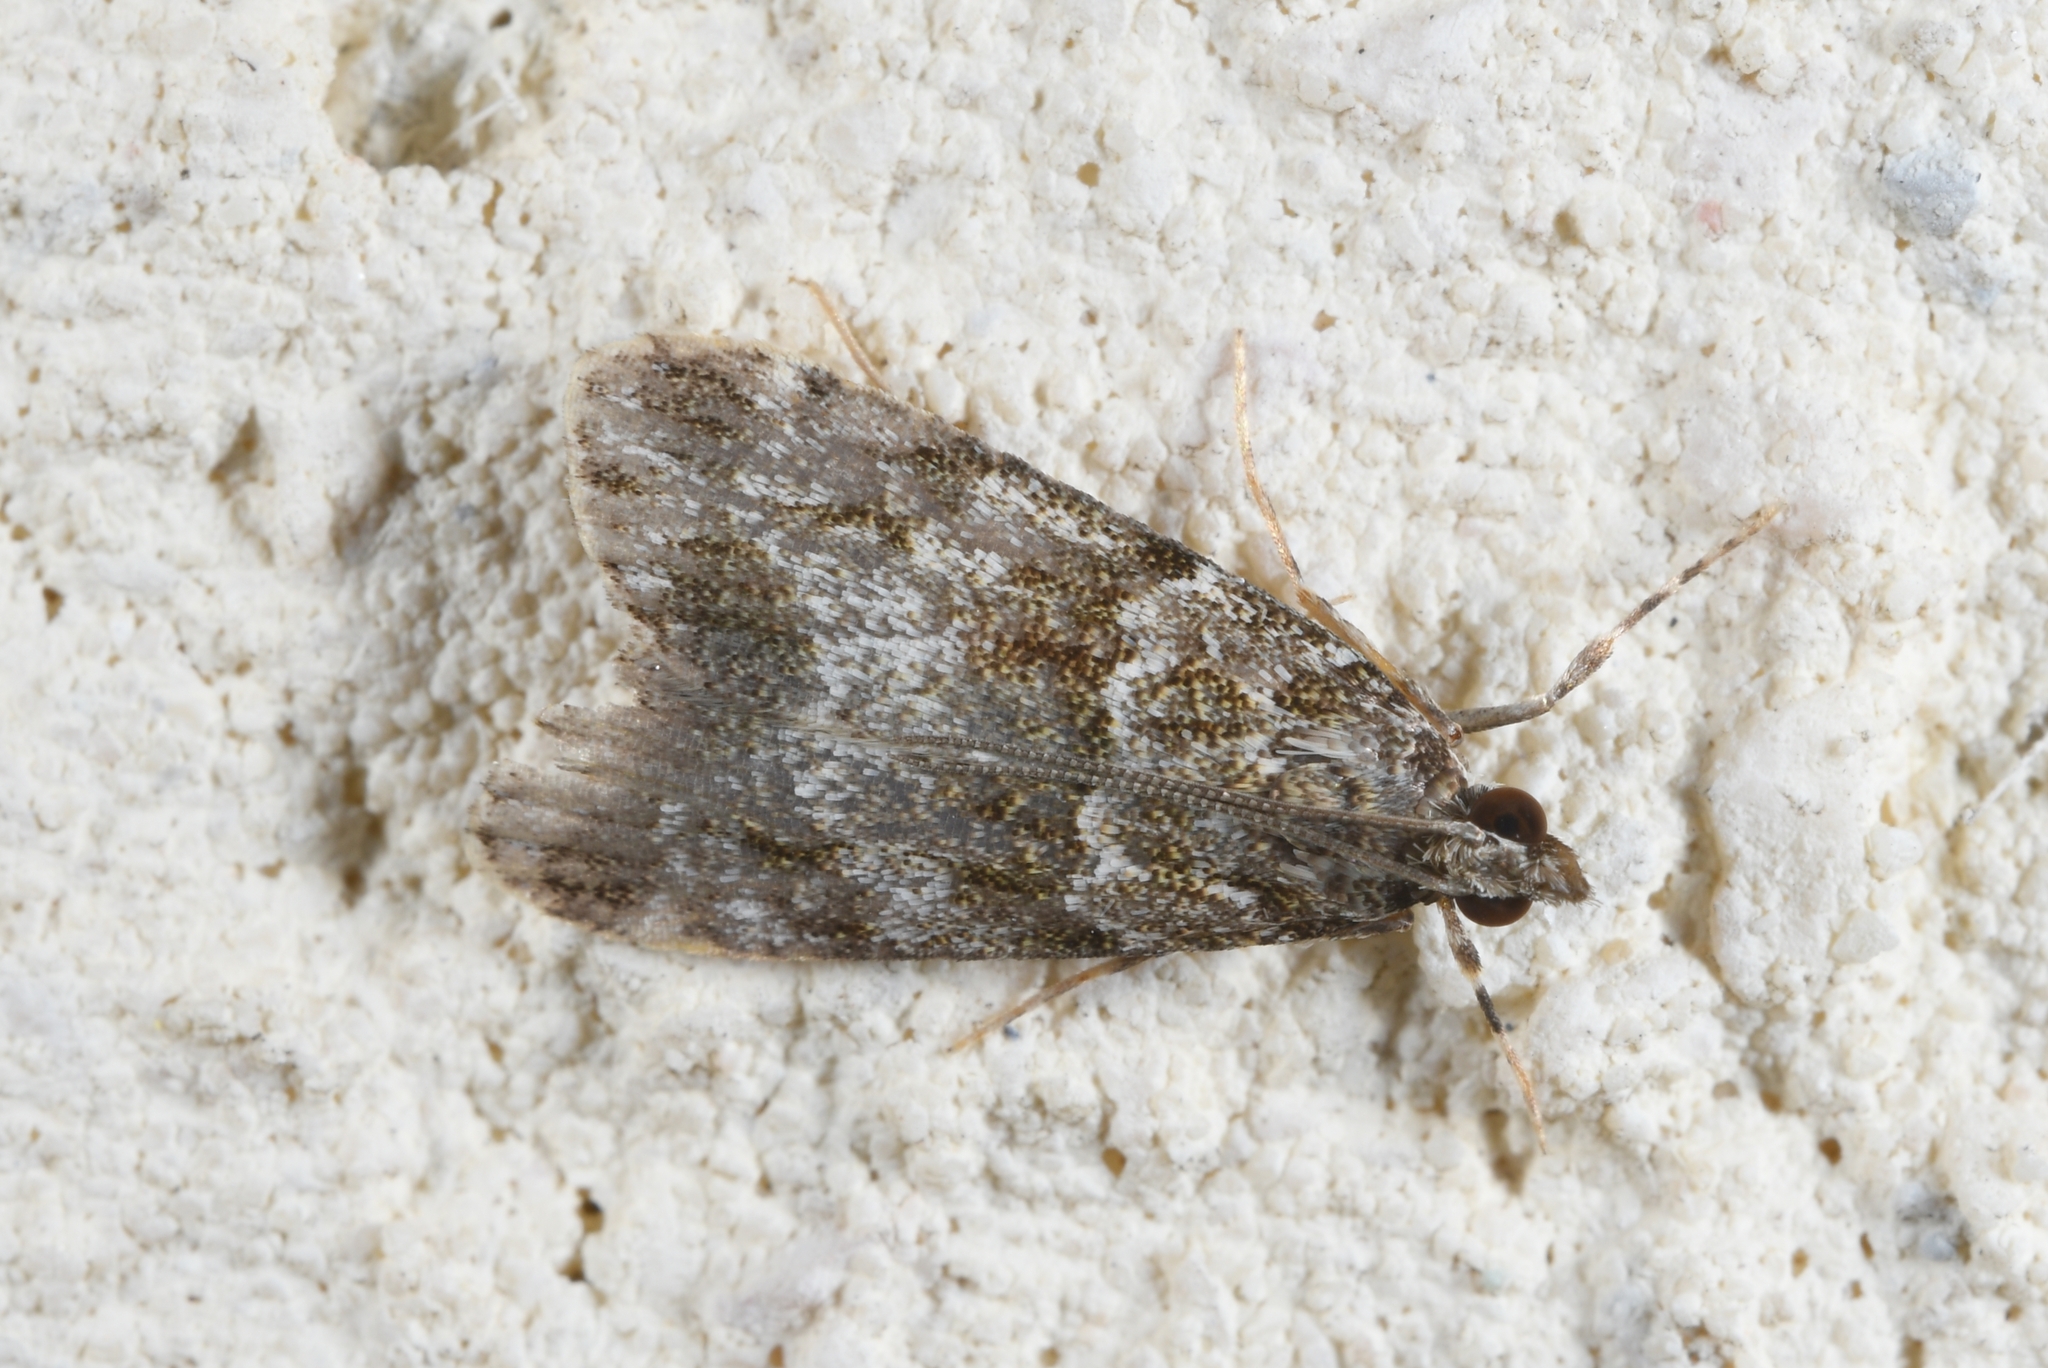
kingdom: Animalia
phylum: Arthropoda
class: Insecta
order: Lepidoptera
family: Crambidae
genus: Eudonia
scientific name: Eudonia mercurella
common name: Small grey
